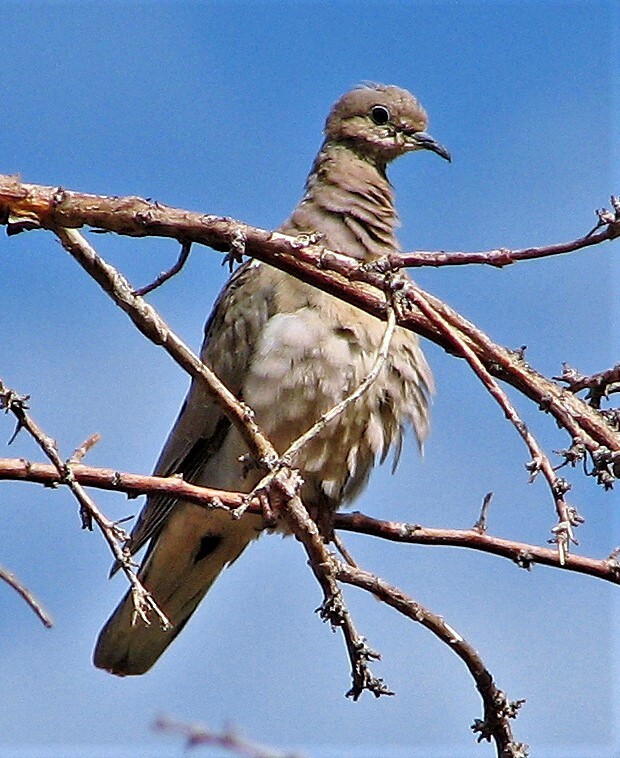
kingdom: Animalia
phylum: Chordata
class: Aves
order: Columbiformes
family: Columbidae
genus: Zenaida
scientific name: Zenaida auriculata
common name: Eared dove
